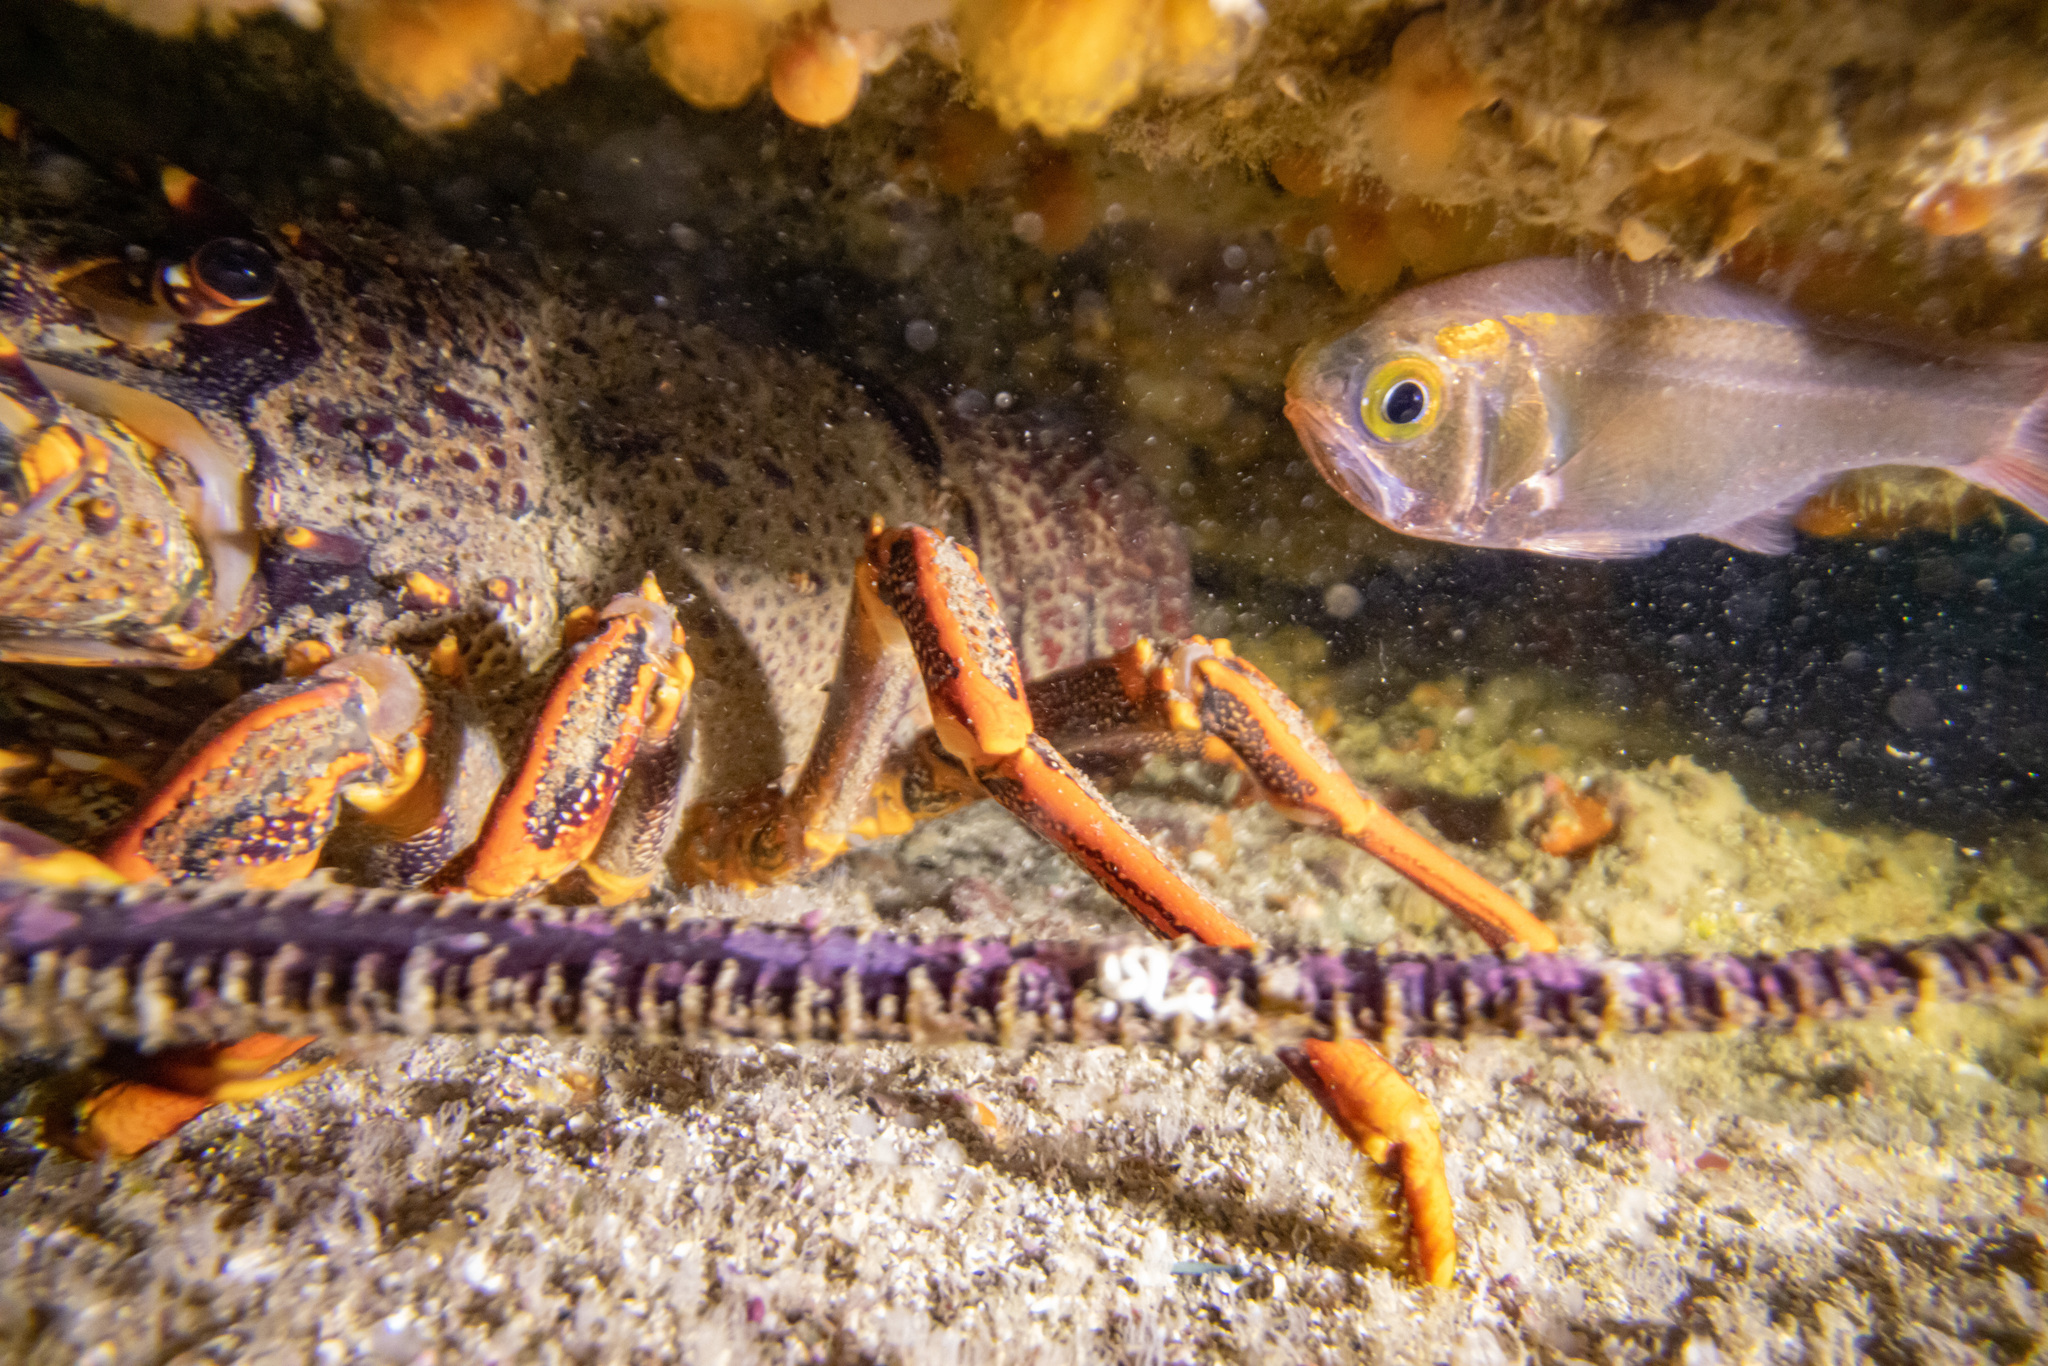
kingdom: Animalia
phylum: Chordata
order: Beryciformes
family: Trachichthyidae
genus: Optivus
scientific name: Optivus elongatus
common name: Slender roughy
